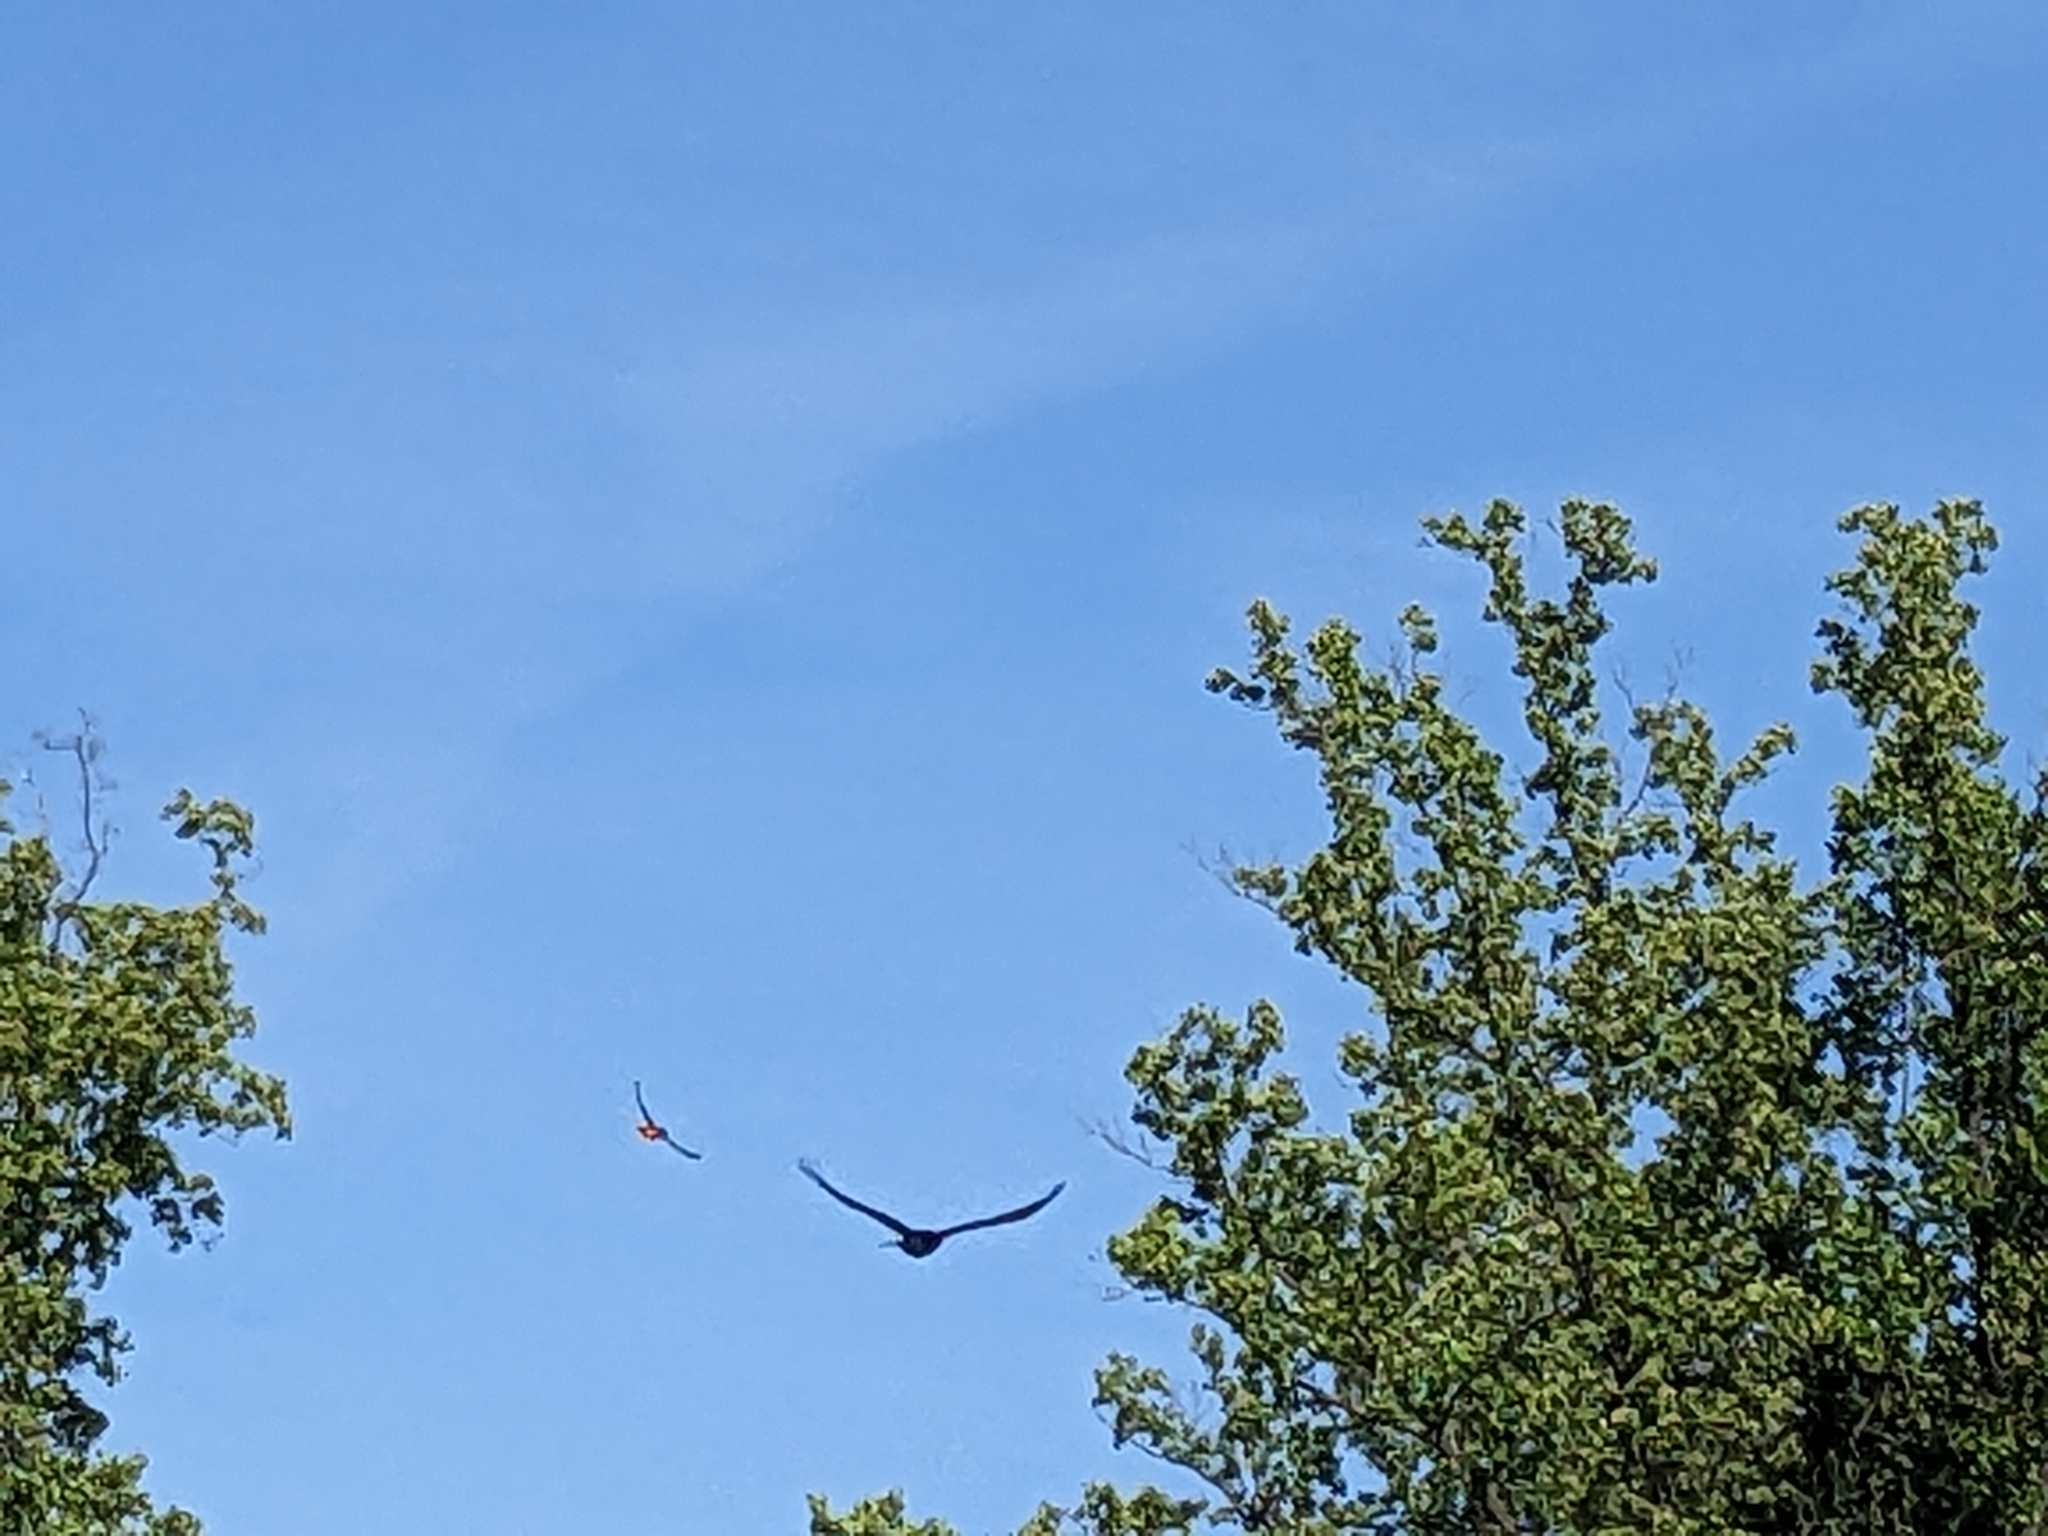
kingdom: Animalia
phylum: Chordata
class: Aves
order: Passeriformes
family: Corvidae
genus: Corvus
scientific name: Corvus ossifragus
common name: Fish crow
